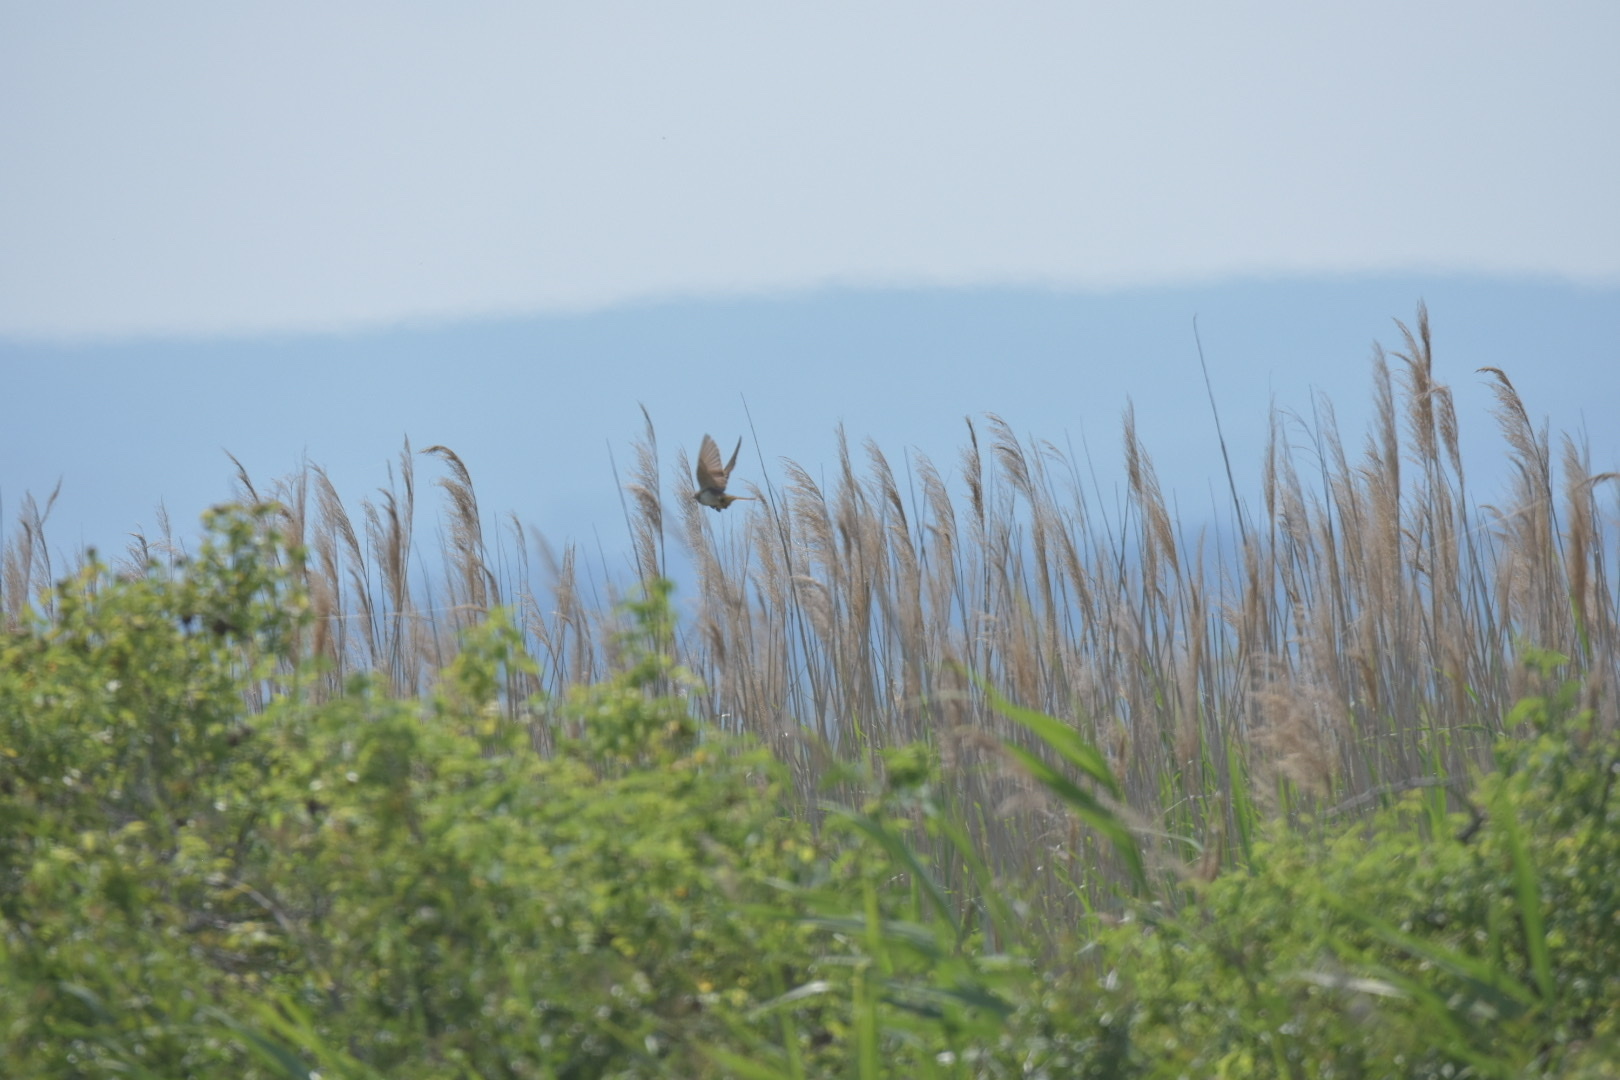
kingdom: Animalia
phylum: Chordata
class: Aves
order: Passeriformes
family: Acrocephalidae
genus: Acrocephalus
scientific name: Acrocephalus arundinaceus
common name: Great reed warbler
